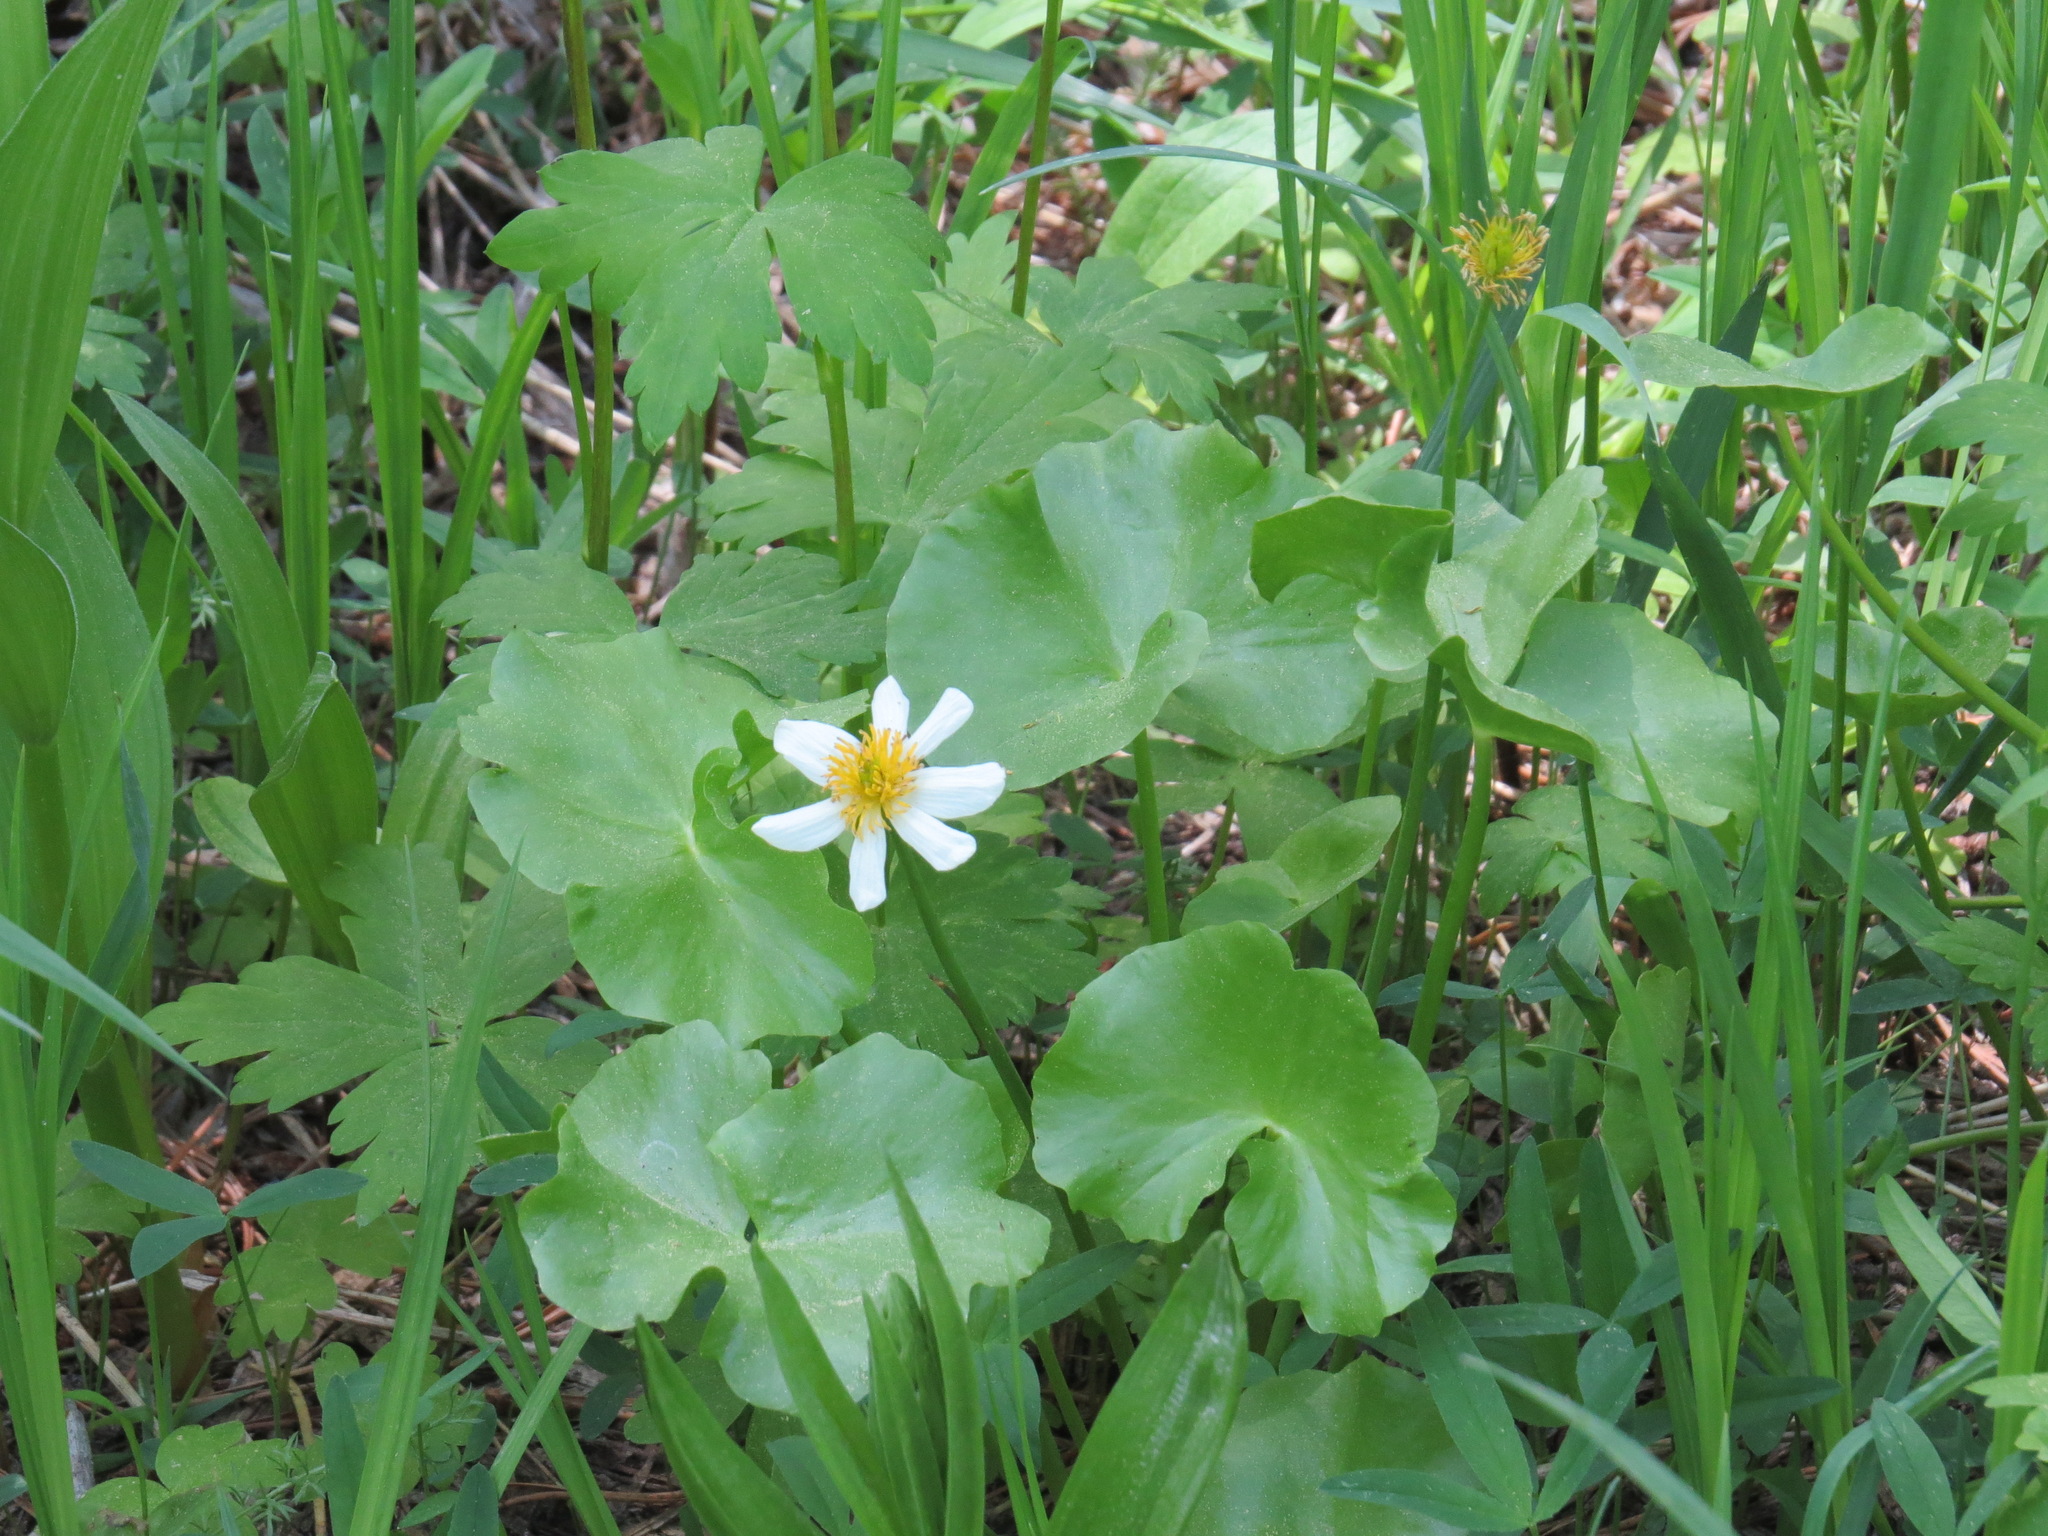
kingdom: Plantae
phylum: Tracheophyta
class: Magnoliopsida
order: Ranunculales
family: Ranunculaceae
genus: Caltha
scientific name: Caltha leptosepala
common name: Elkslip
